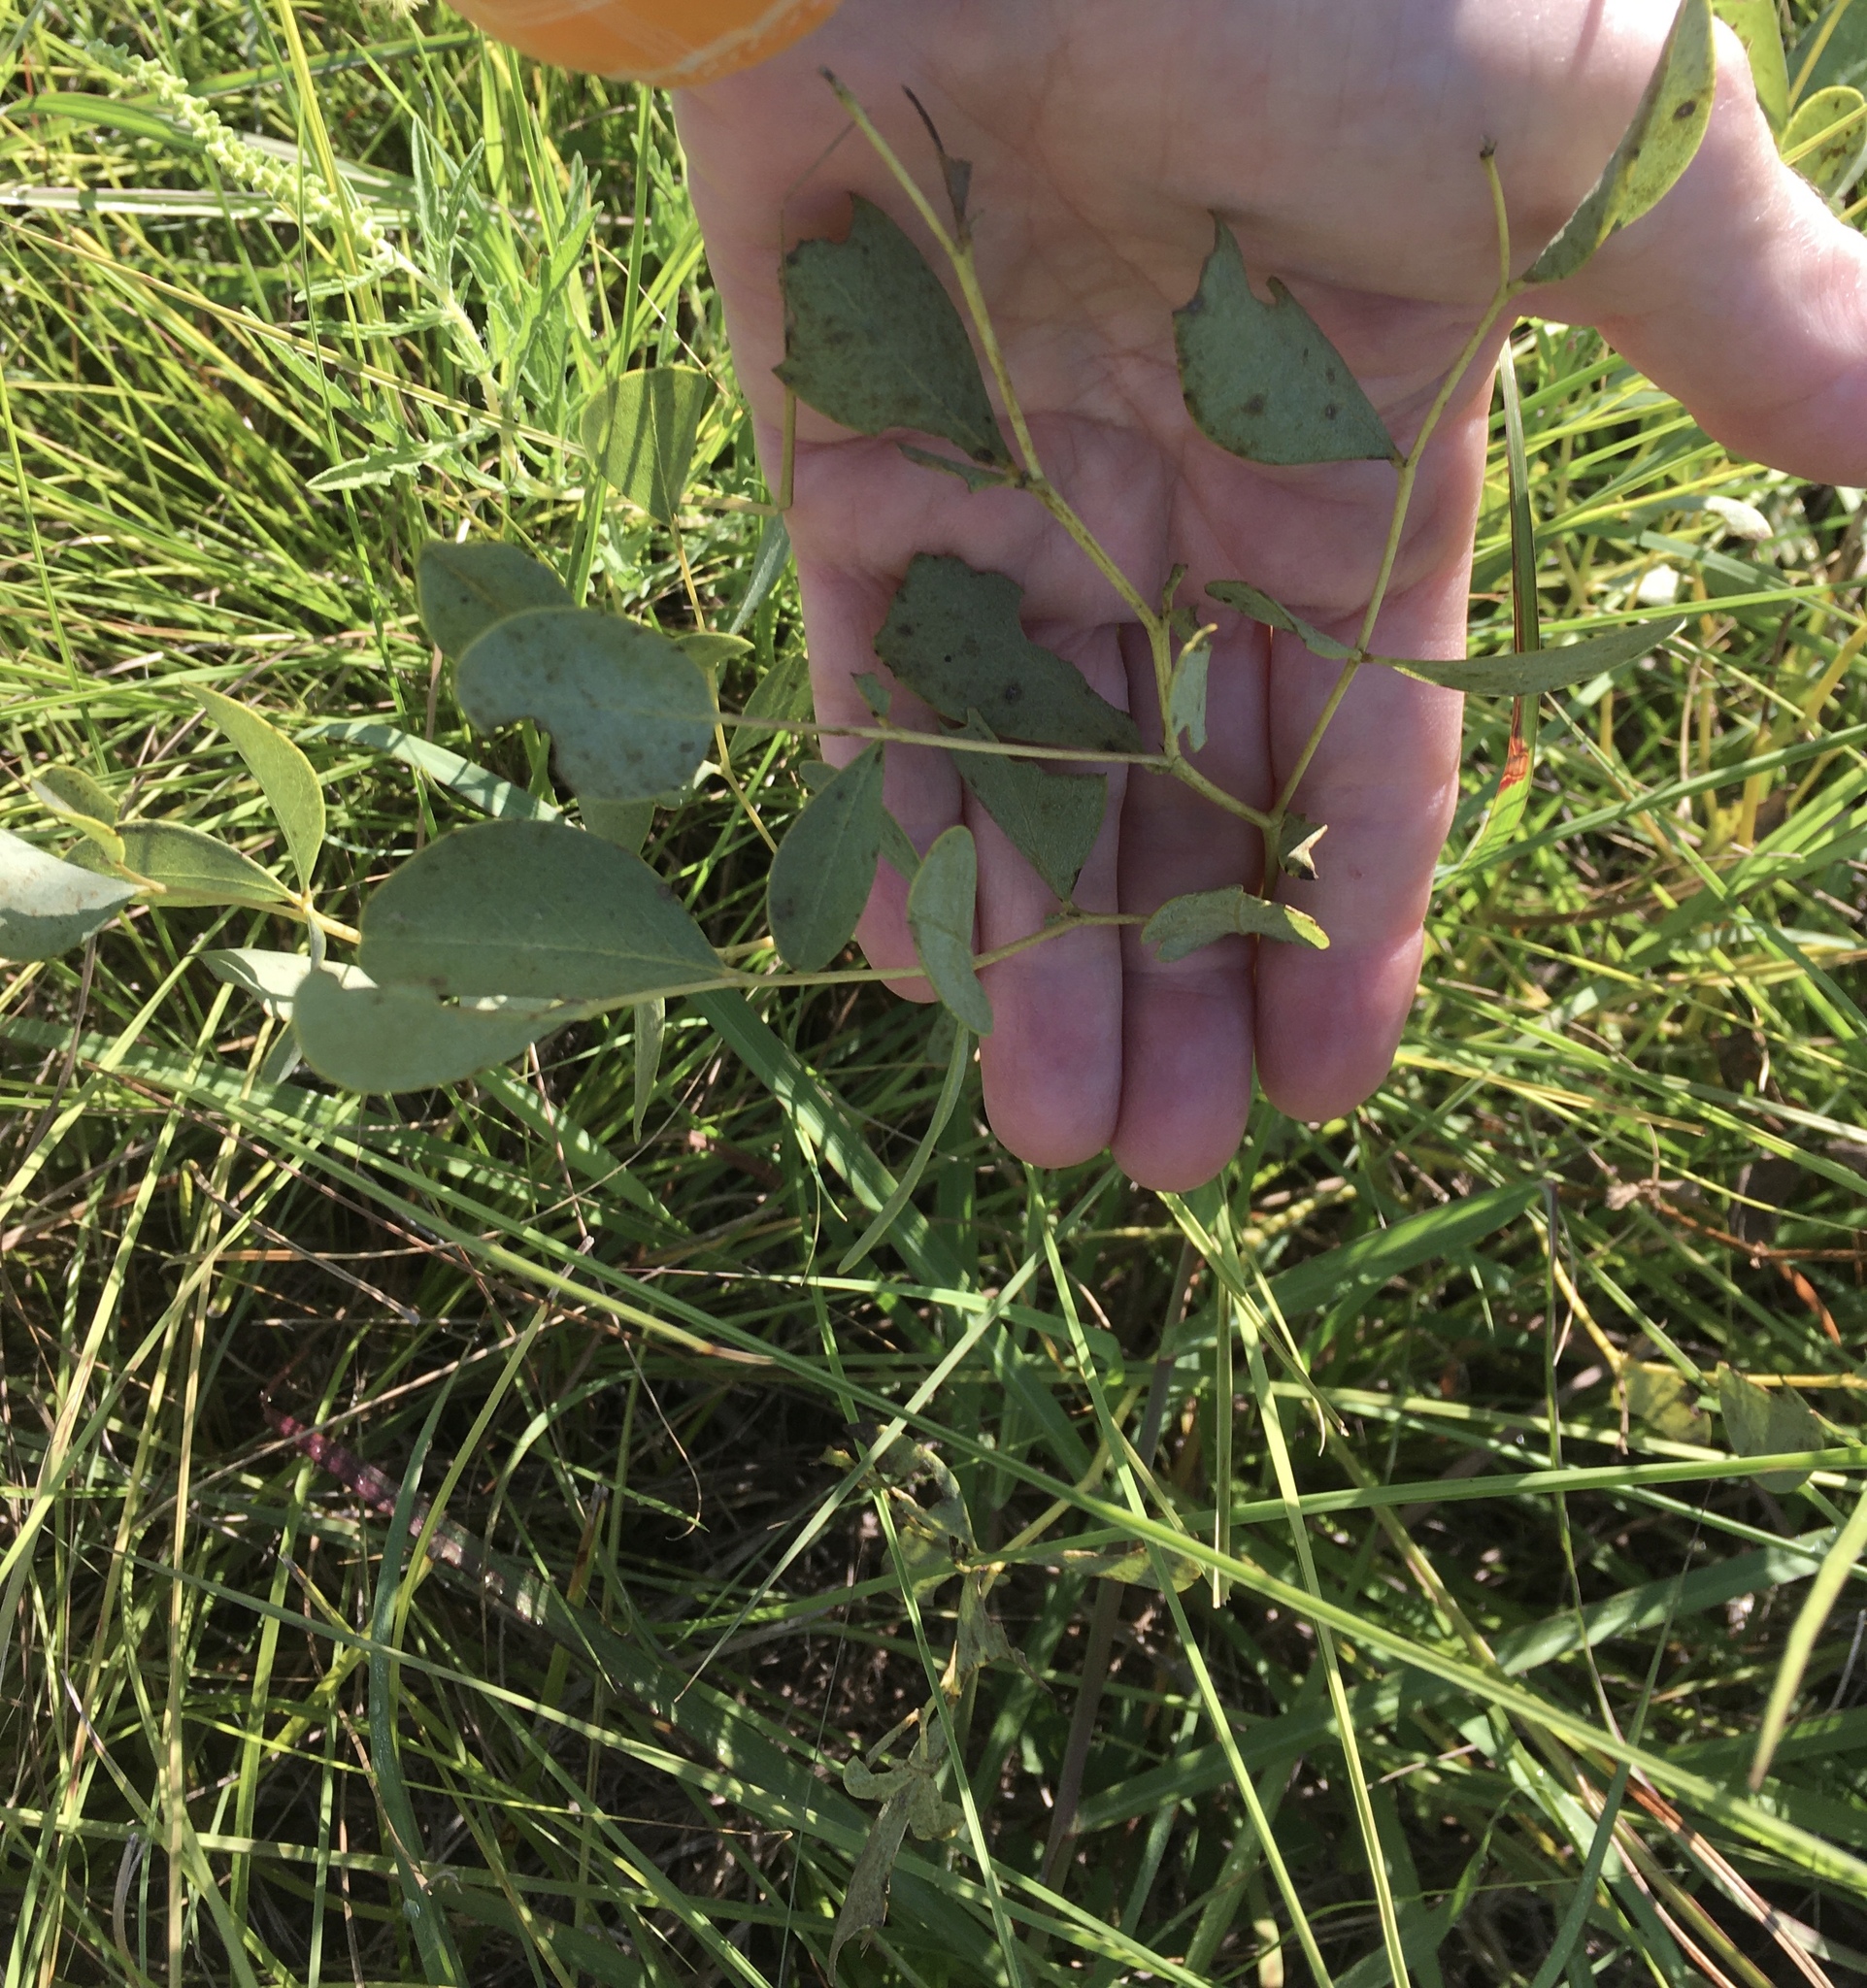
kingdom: Plantae
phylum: Tracheophyta
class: Magnoliopsida
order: Fabales
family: Fabaceae
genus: Baptisia
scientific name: Baptisia sphaerocarpa
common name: Round wild indigo
